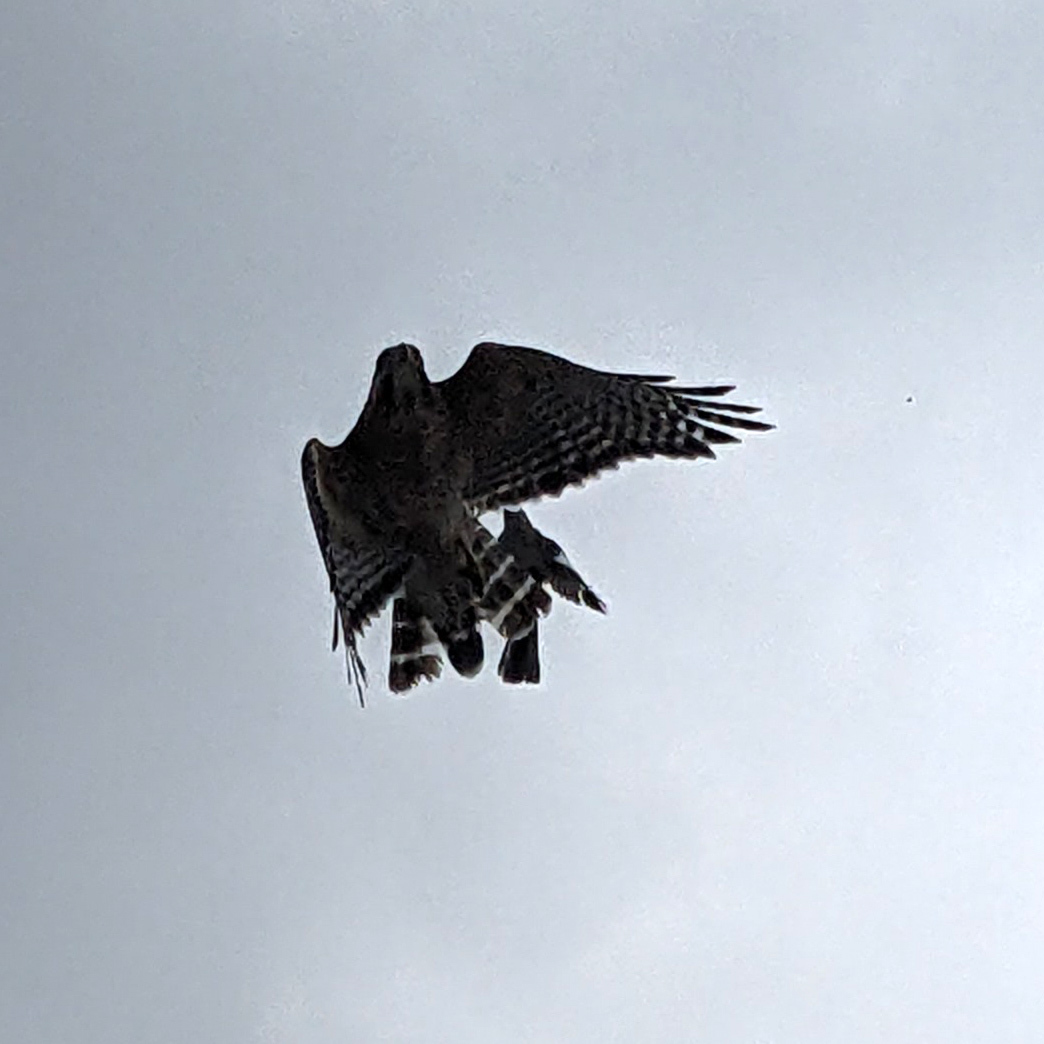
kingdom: Animalia
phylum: Chordata
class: Aves
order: Passeriformes
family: Mimidae
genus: Mimus
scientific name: Mimus polyglottos
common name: Northern mockingbird
